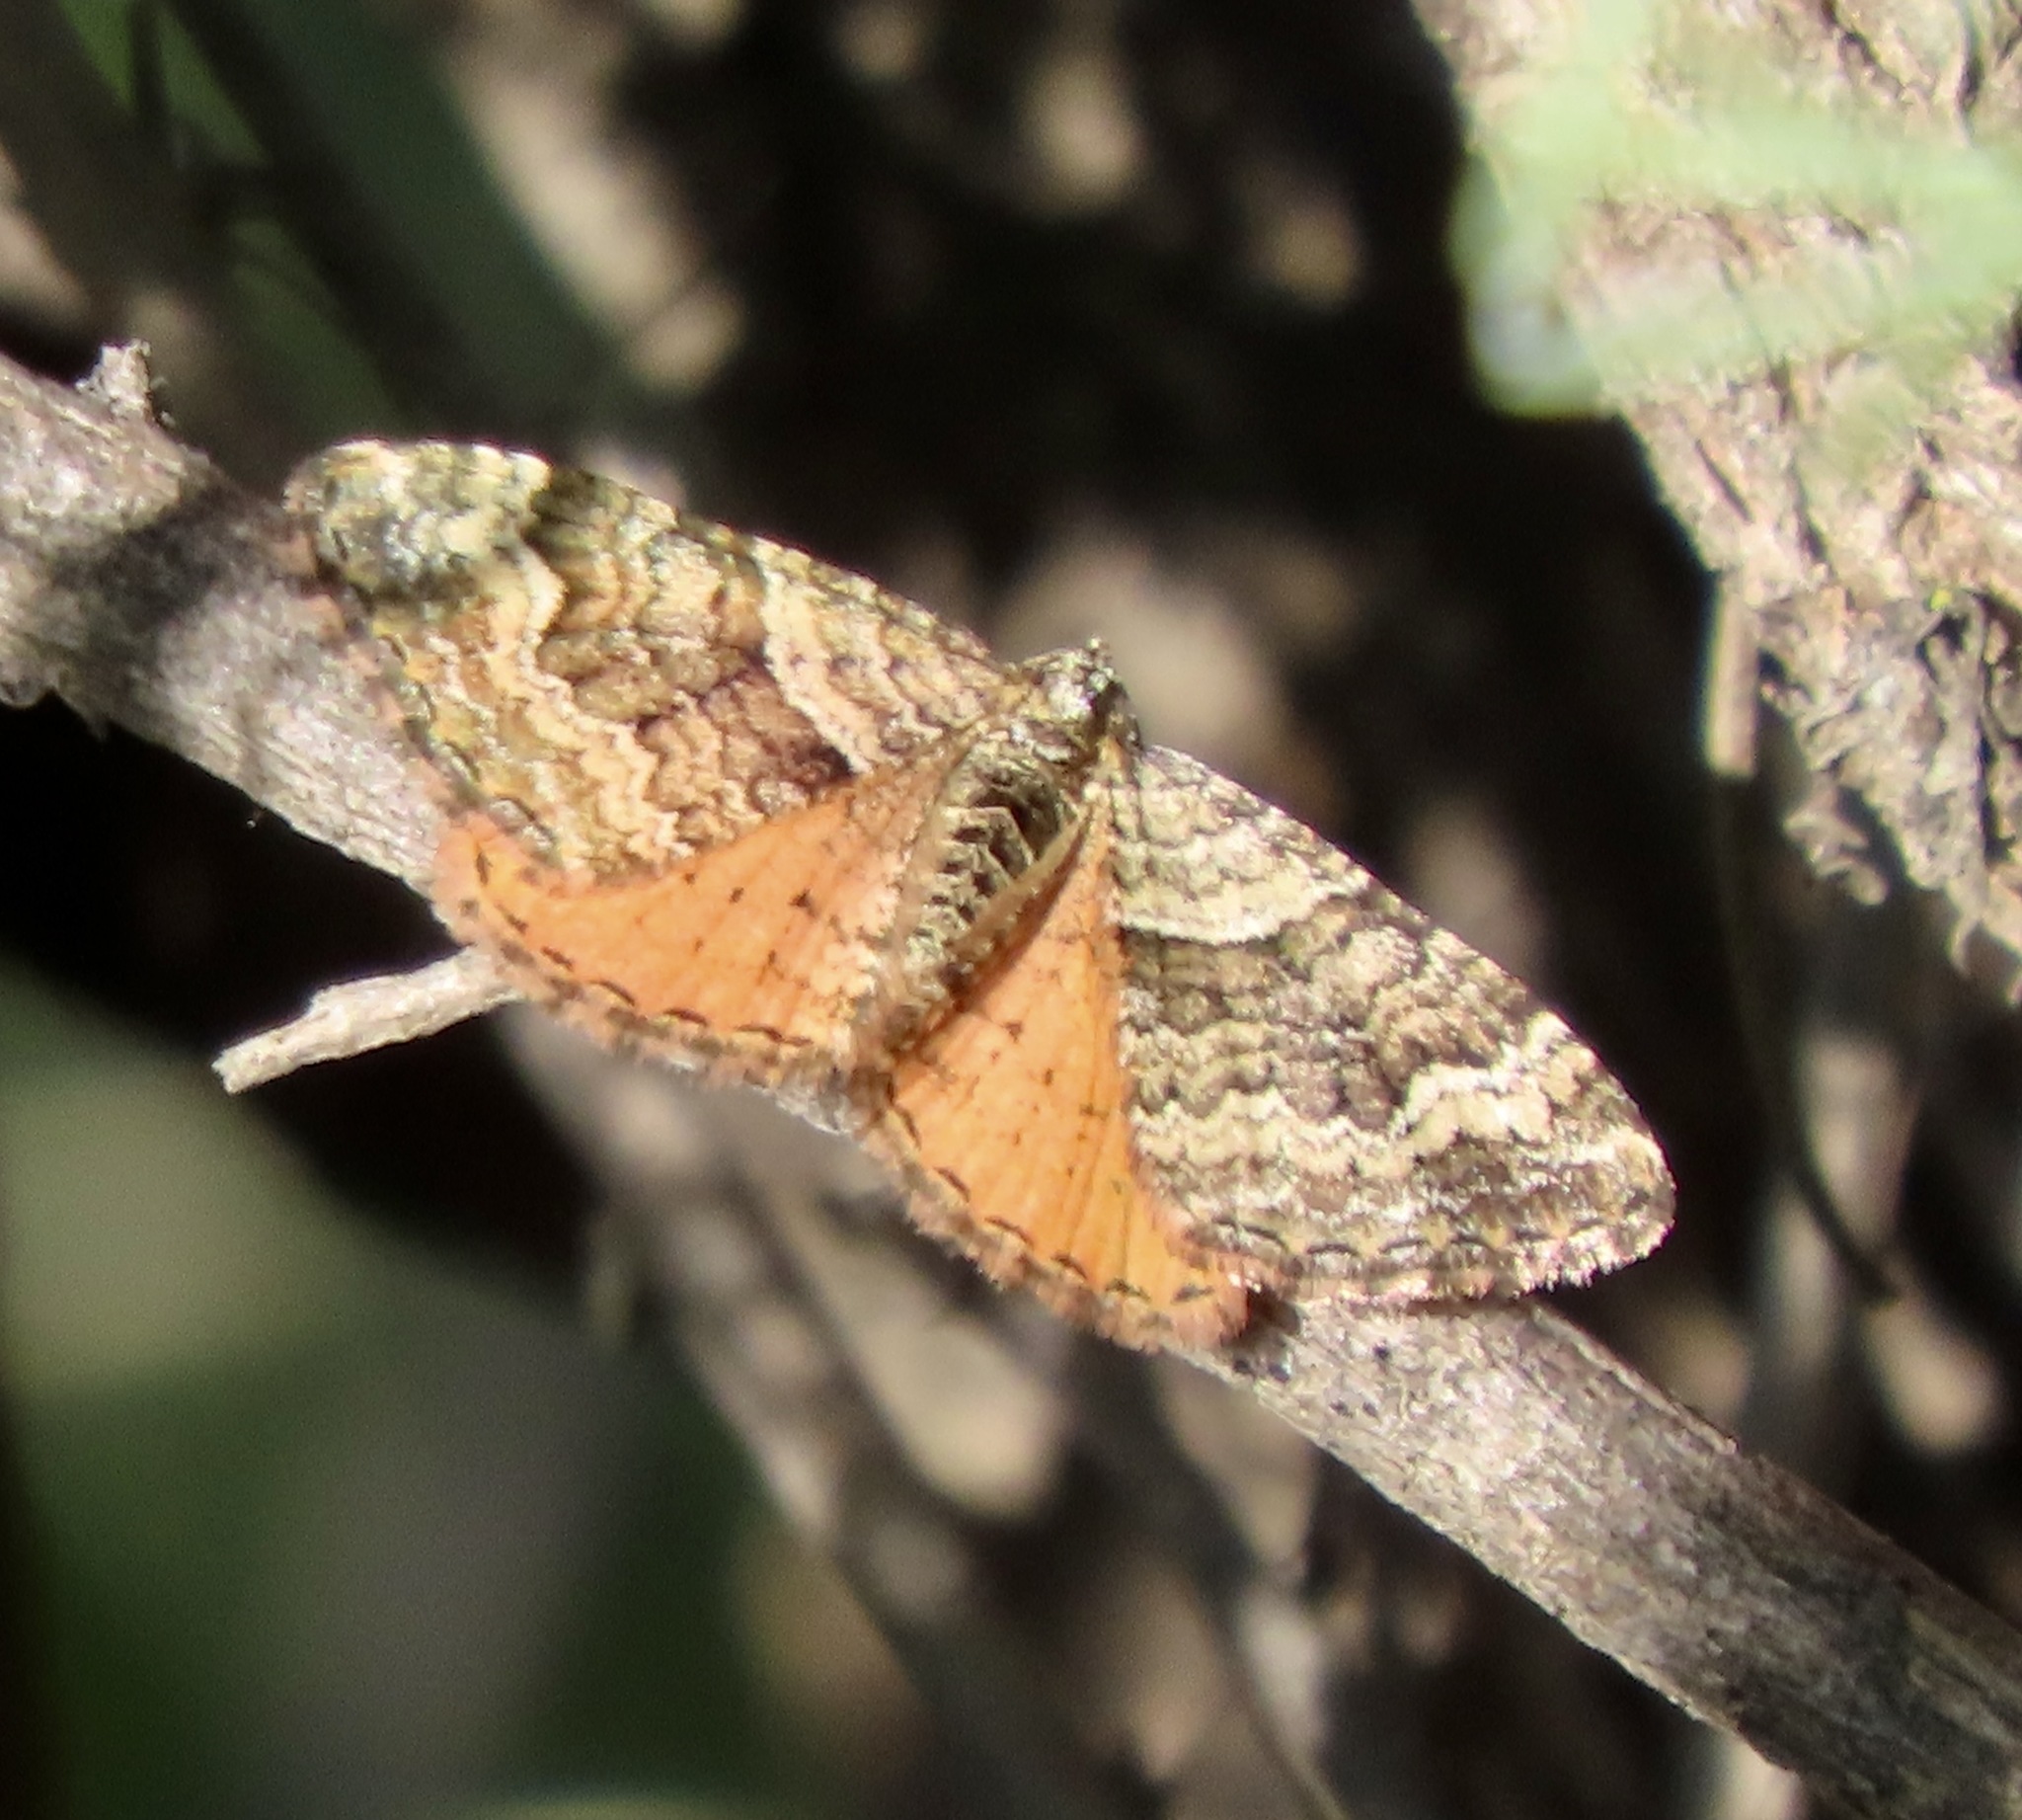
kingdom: Animalia
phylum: Arthropoda
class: Insecta
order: Lepidoptera
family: Geometridae
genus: Epirrhoe
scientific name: Epirrhoe plebeculata
